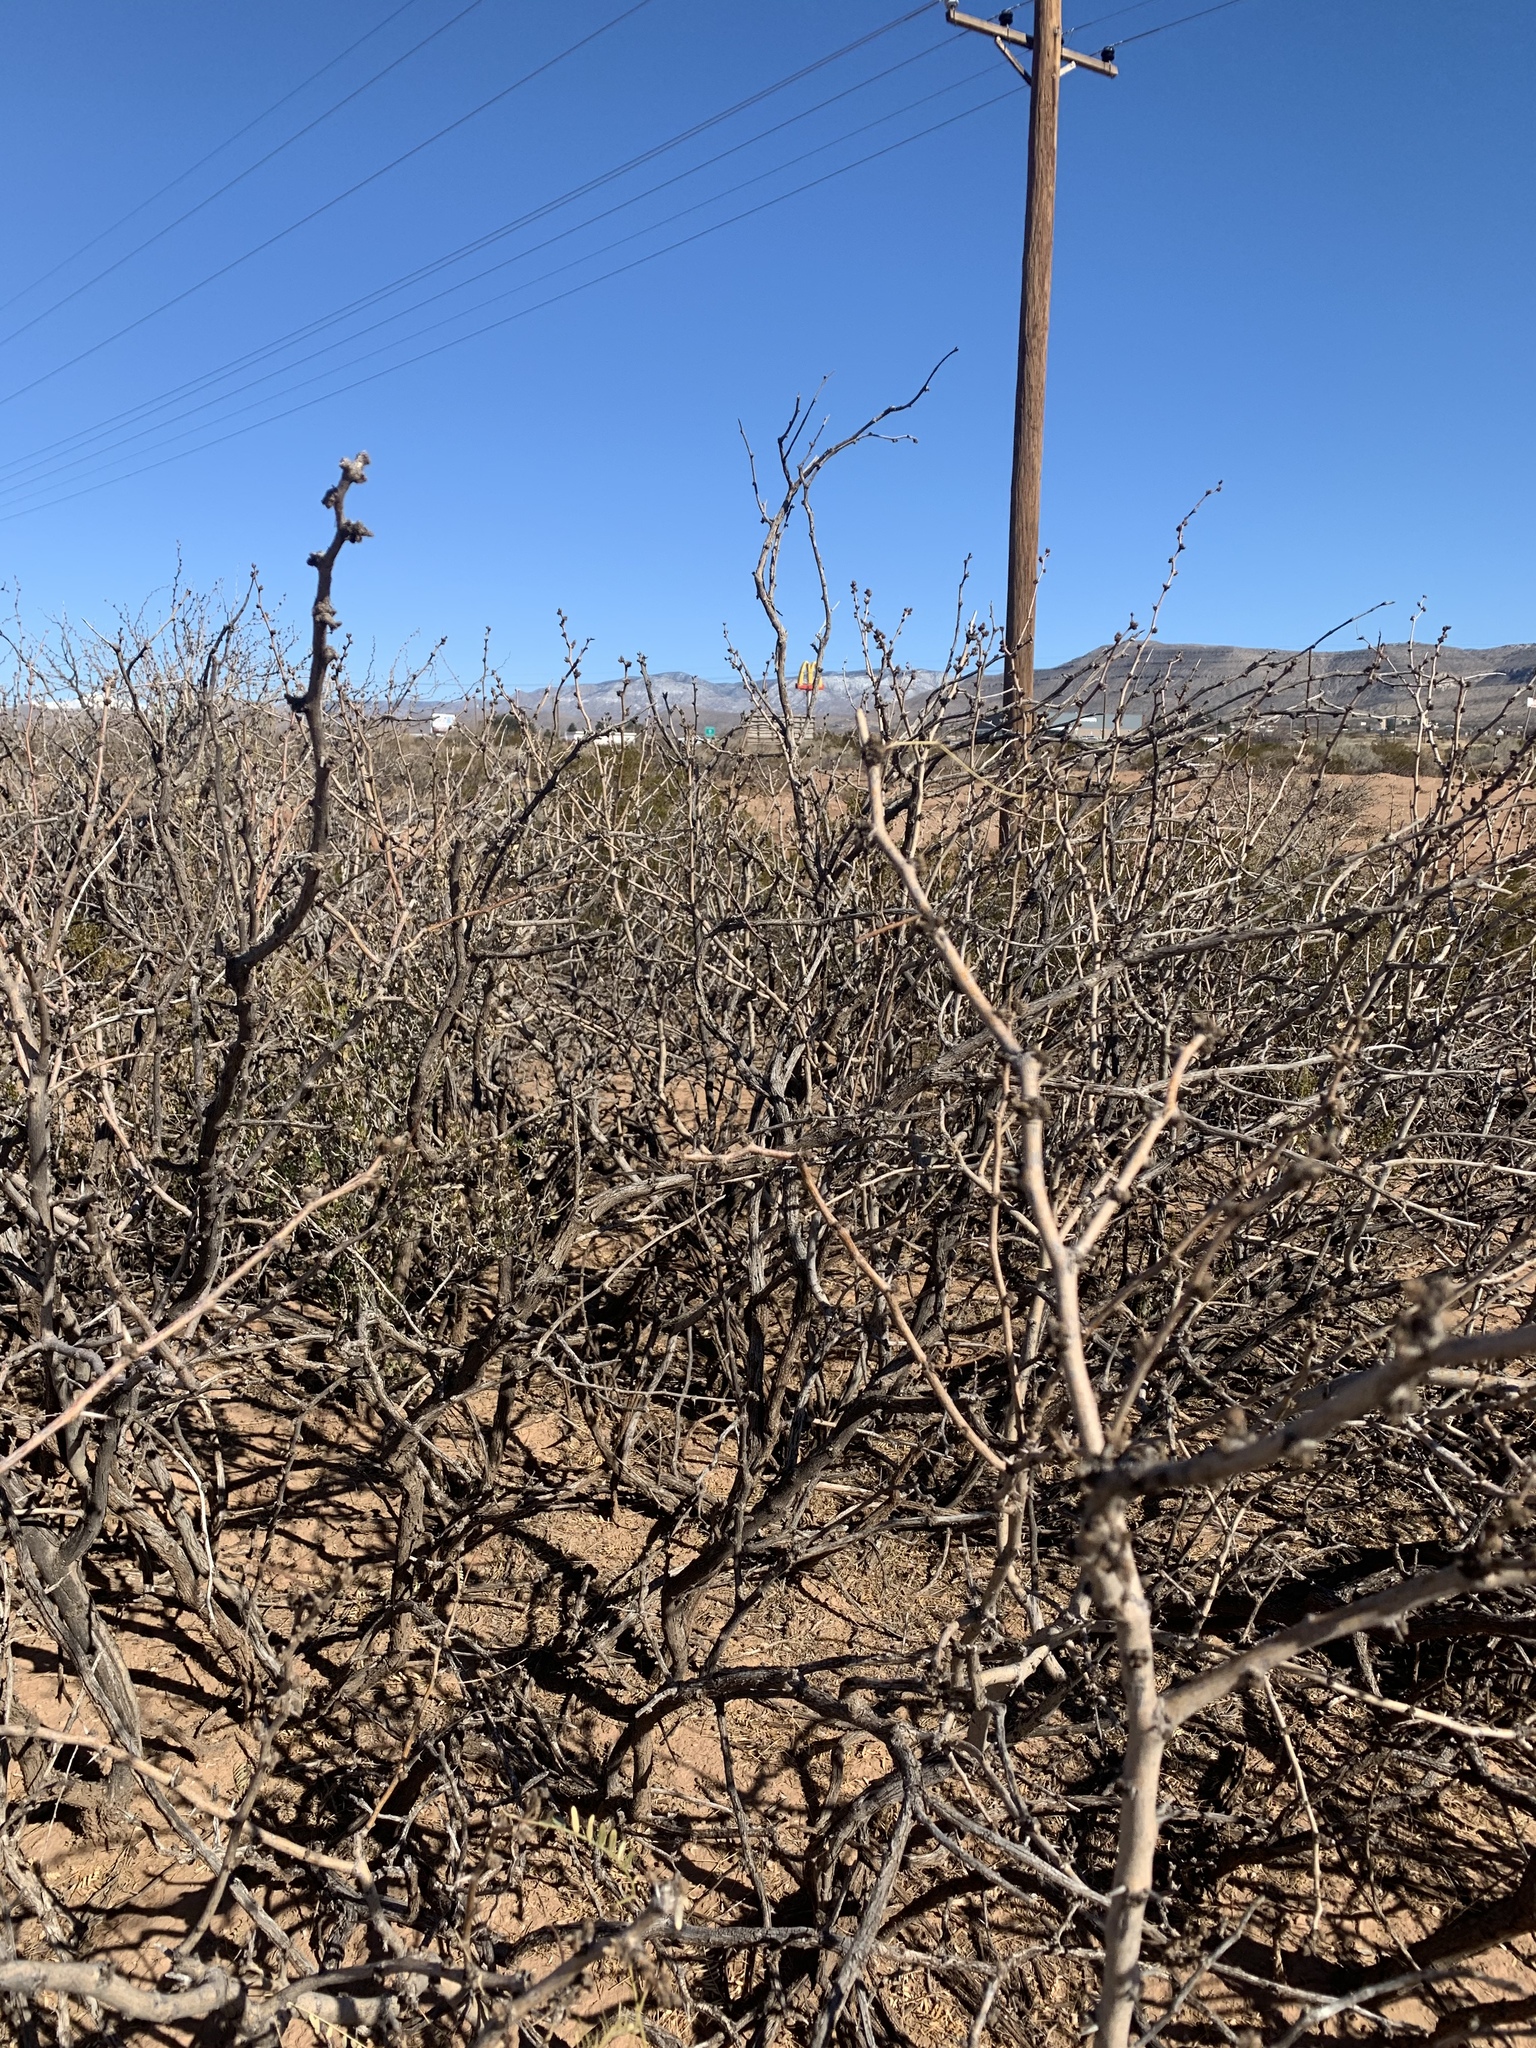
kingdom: Plantae
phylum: Tracheophyta
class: Magnoliopsida
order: Fabales
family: Fabaceae
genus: Prosopis
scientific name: Prosopis glandulosa
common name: Honey mesquite
